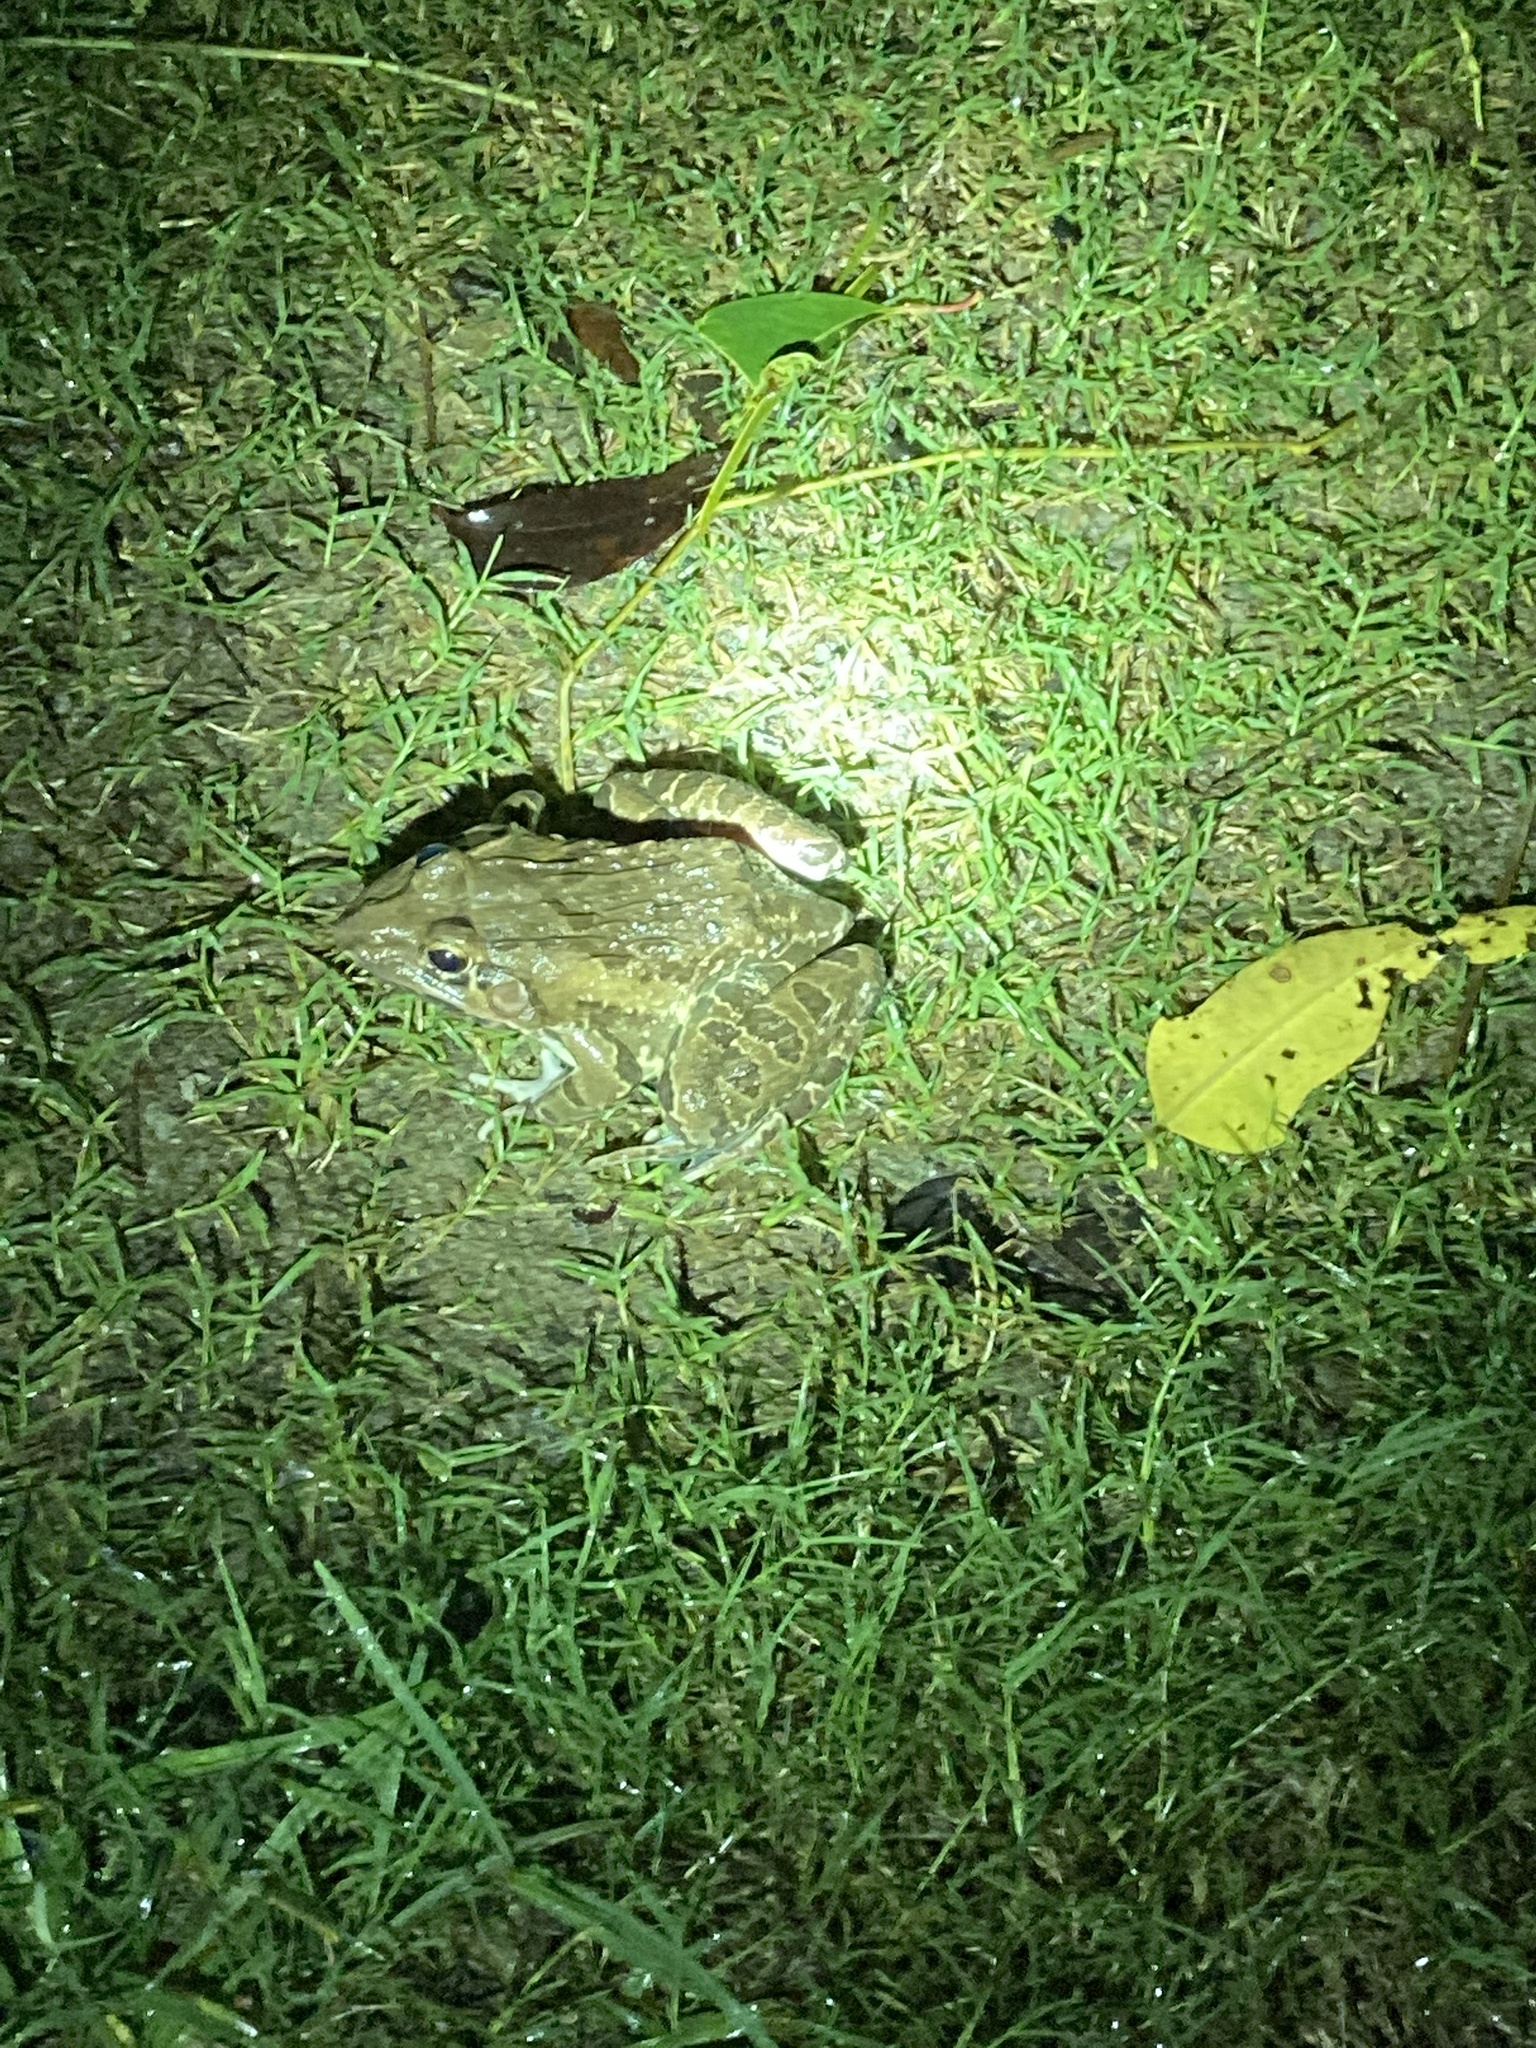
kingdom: Animalia
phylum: Chordata
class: Amphibia
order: Anura
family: Dicroglossidae
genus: Hoplobatrachus
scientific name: Hoplobatrachus tigerinus
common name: Indian bullfrog
